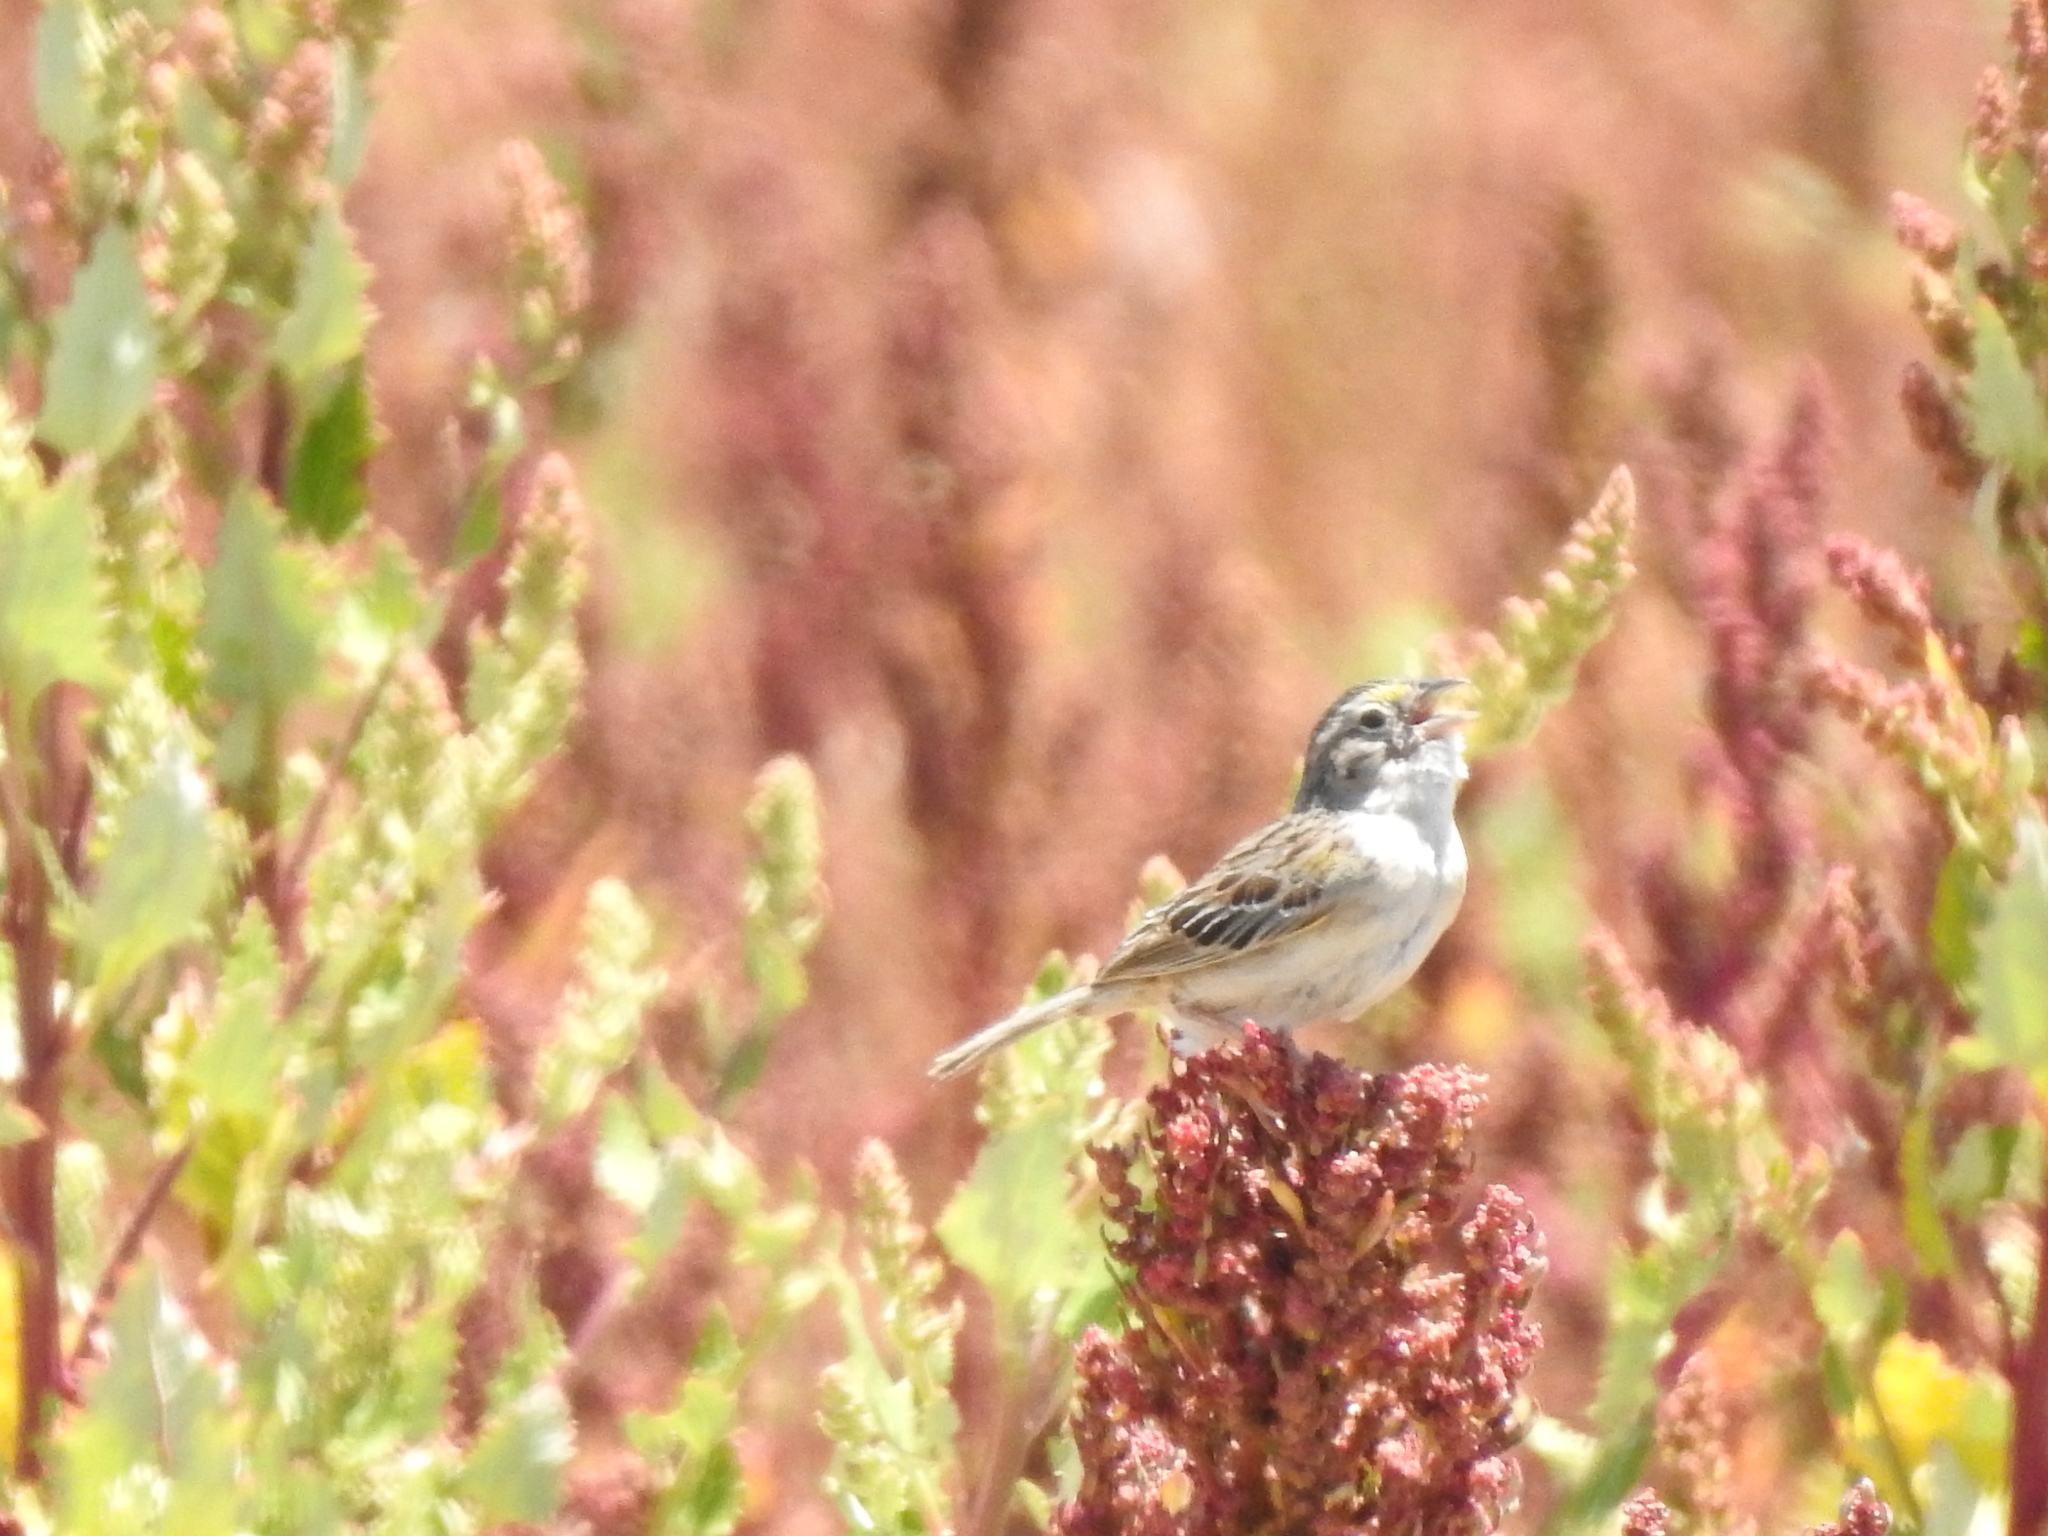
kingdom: Animalia
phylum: Chordata
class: Aves
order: Passeriformes
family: Passerellidae
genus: Ammodramus
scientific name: Ammodramus humeralis
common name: Grassland sparrow
